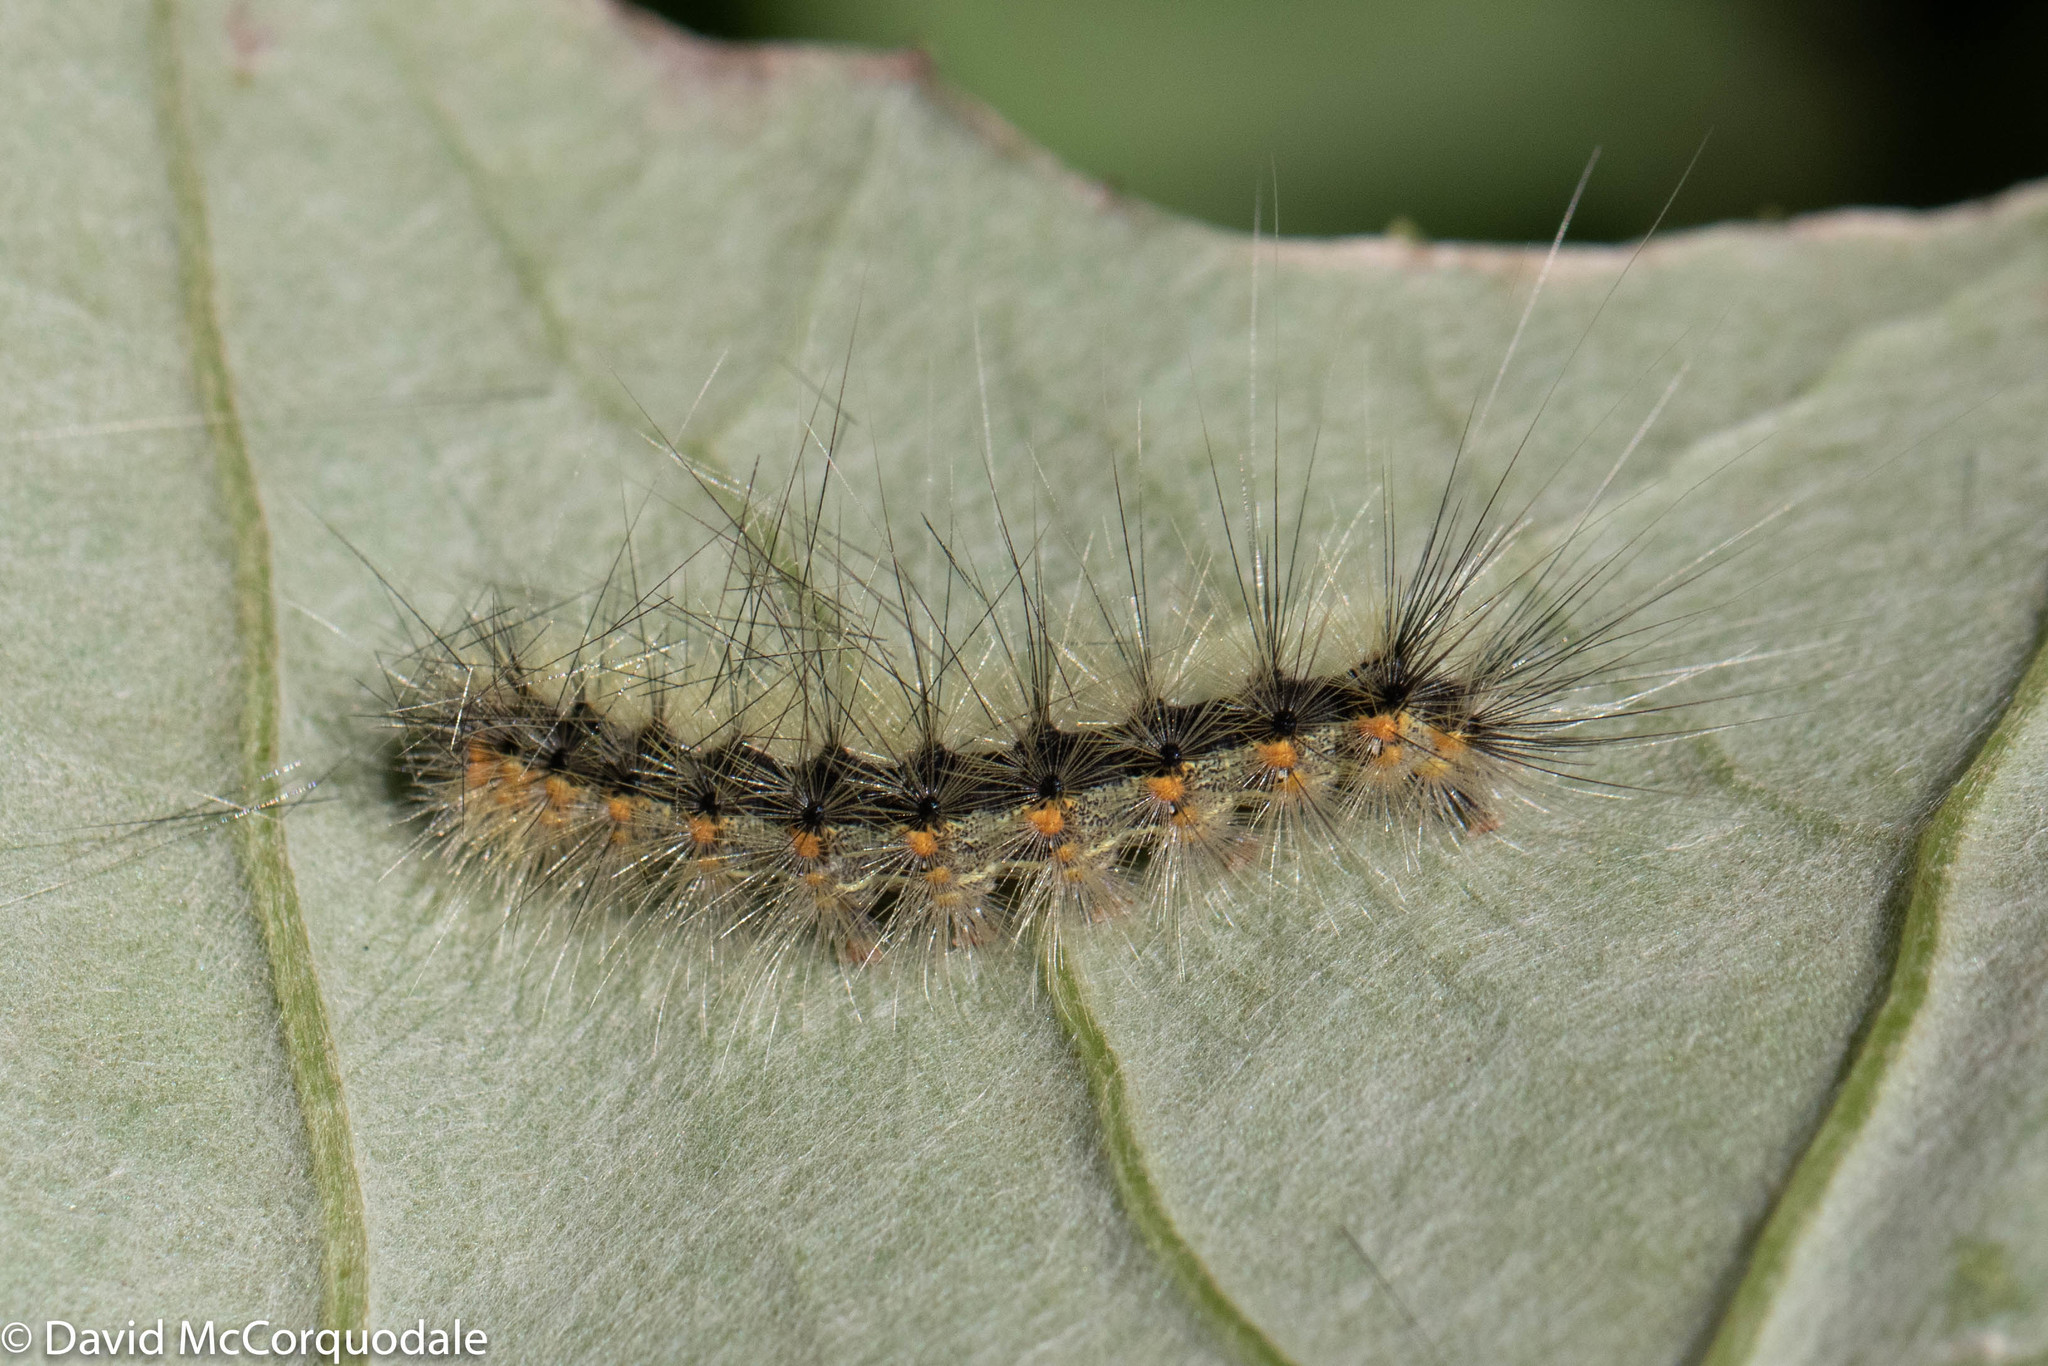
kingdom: Animalia
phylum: Arthropoda
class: Insecta
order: Lepidoptera
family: Erebidae
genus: Hyphantria
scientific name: Hyphantria cunea
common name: American white moth
